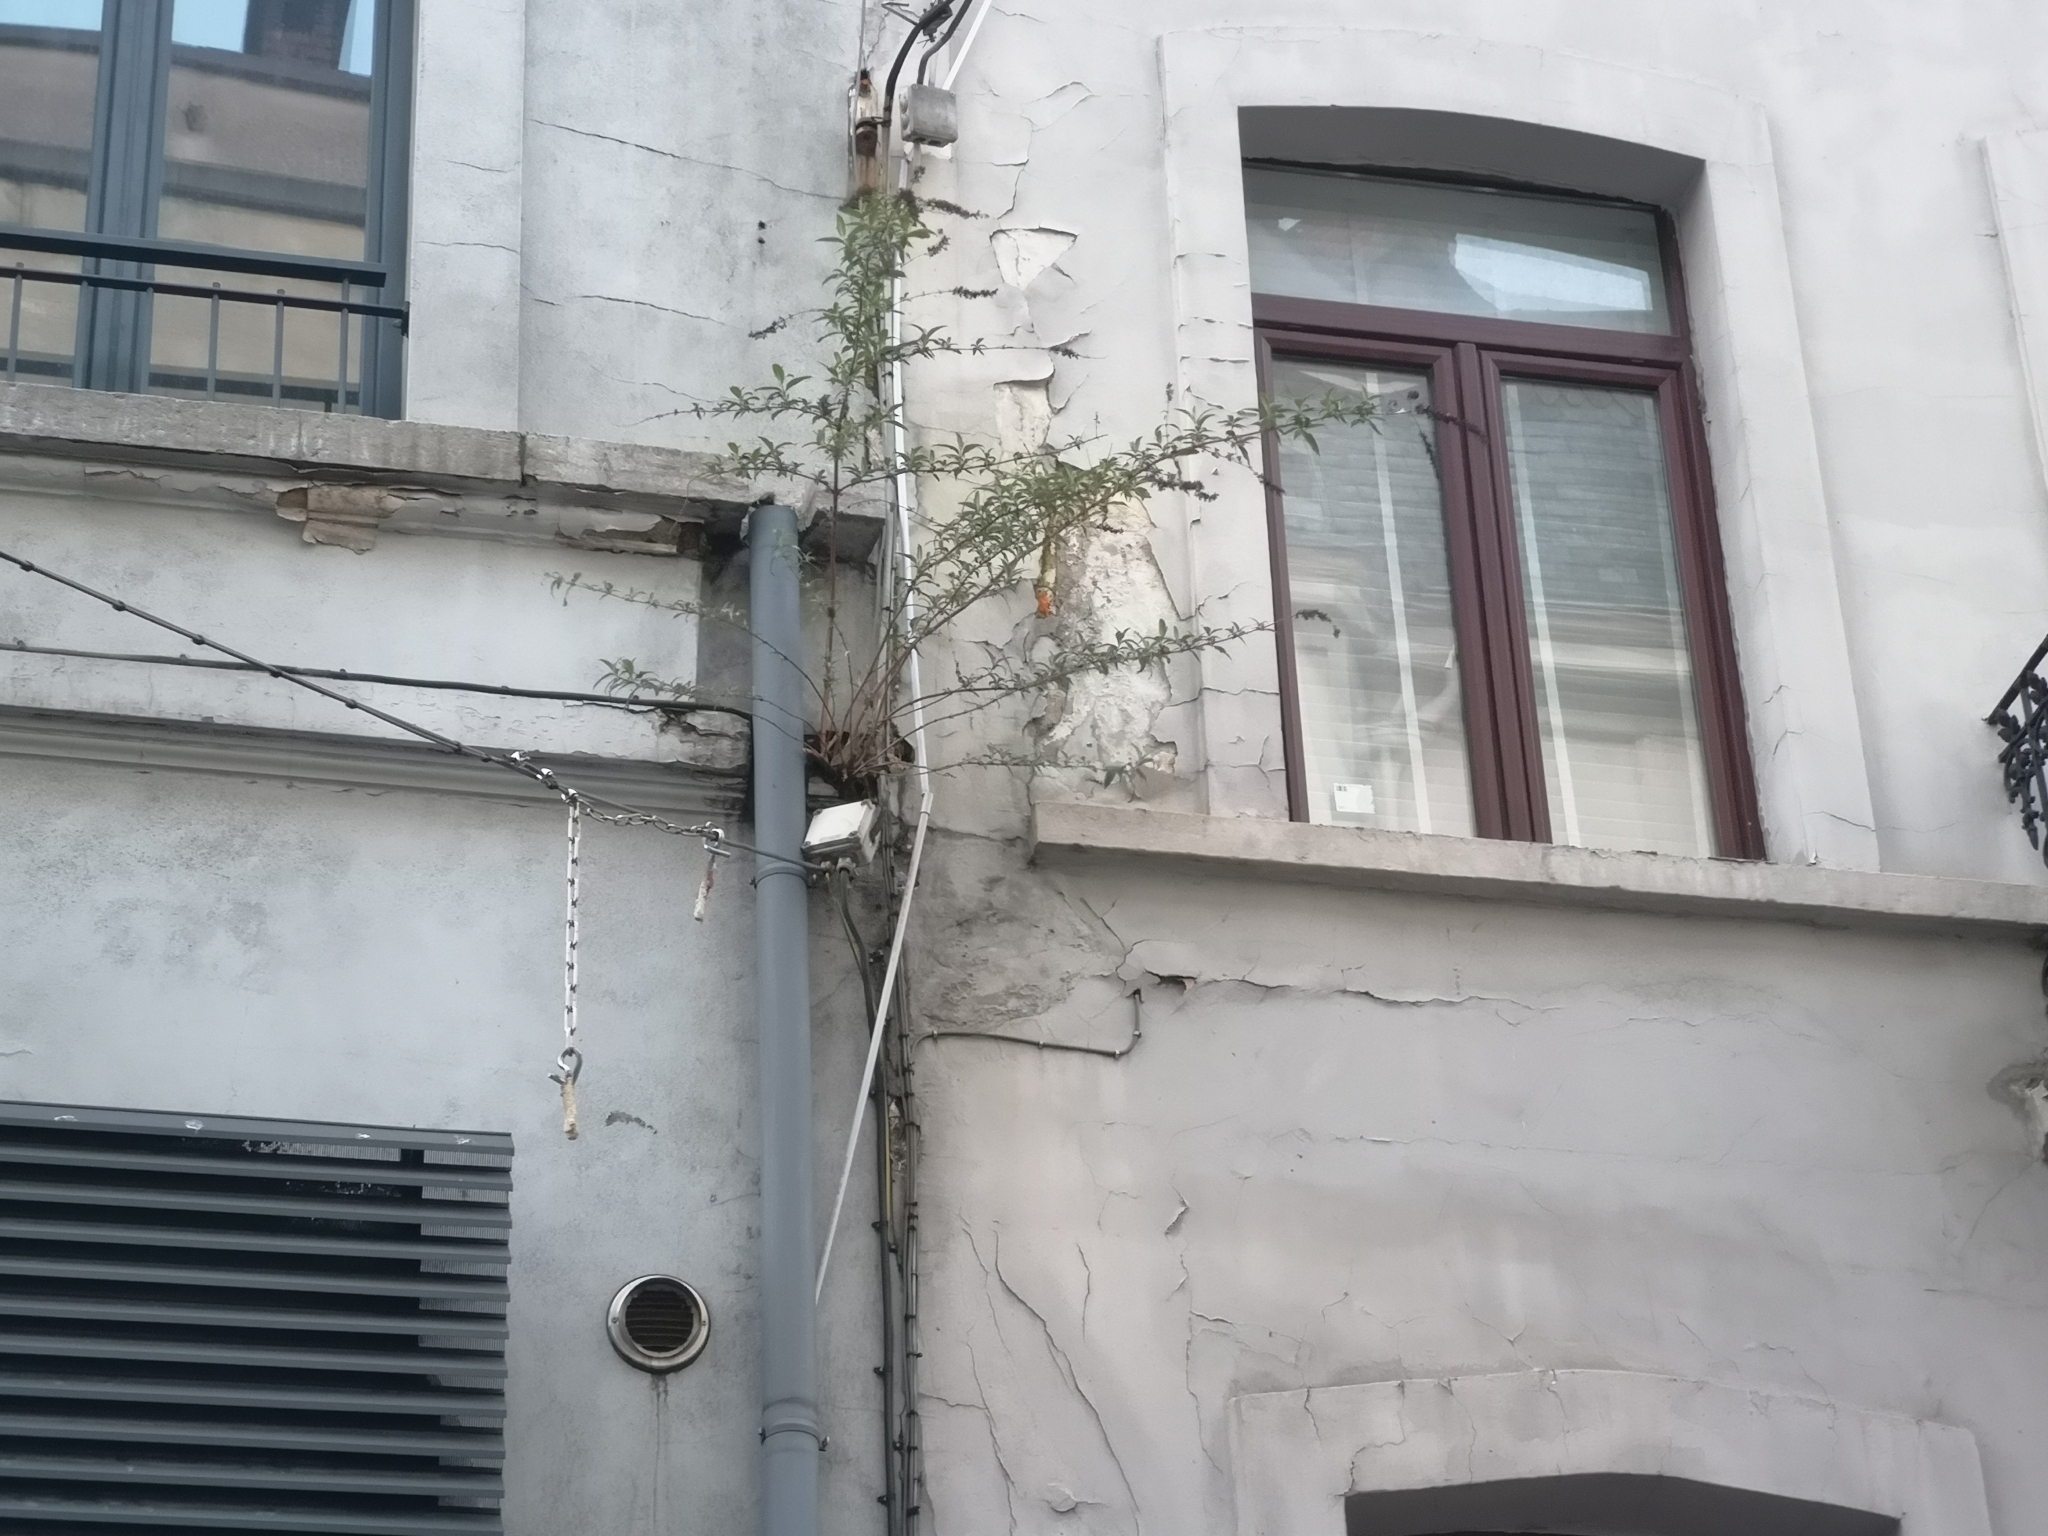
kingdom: Plantae
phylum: Tracheophyta
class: Magnoliopsida
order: Lamiales
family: Scrophulariaceae
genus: Buddleja
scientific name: Buddleja davidii
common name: Butterfly-bush
